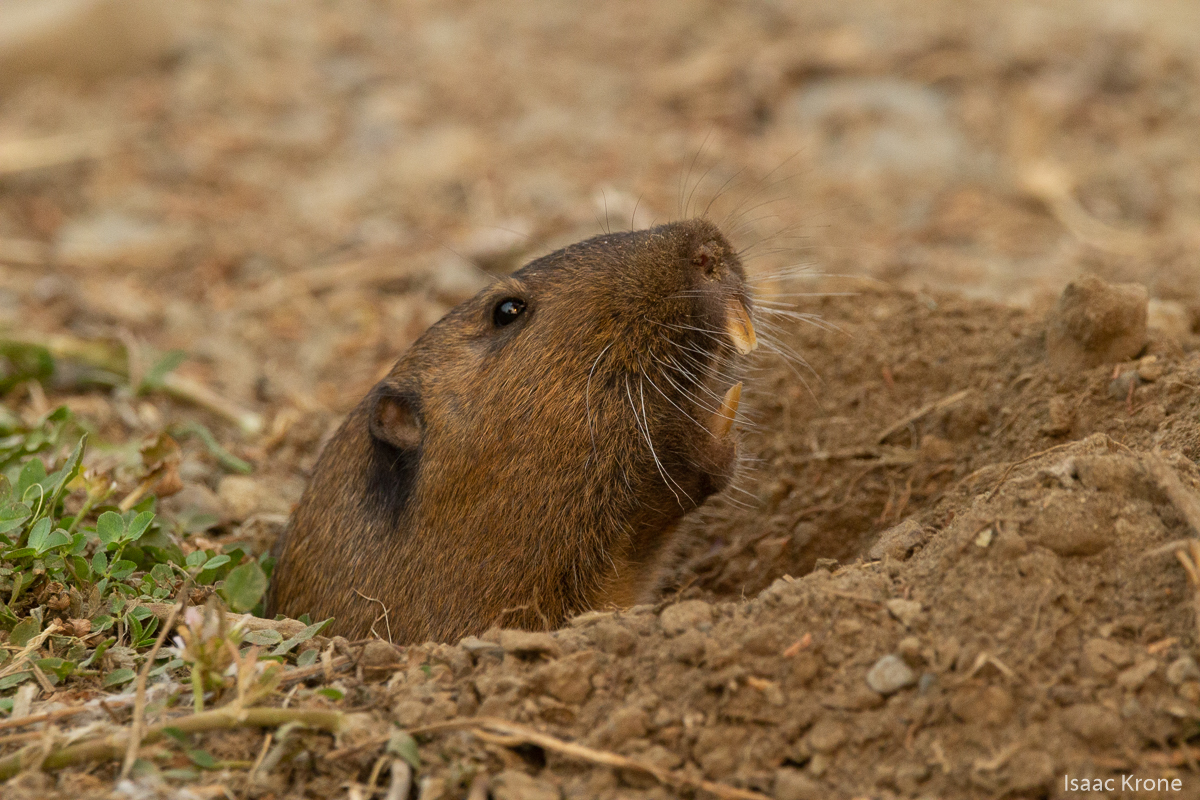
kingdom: Animalia
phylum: Chordata
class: Mammalia
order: Rodentia
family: Geomyidae
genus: Thomomys
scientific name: Thomomys bottae
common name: Botta's pocket gopher
